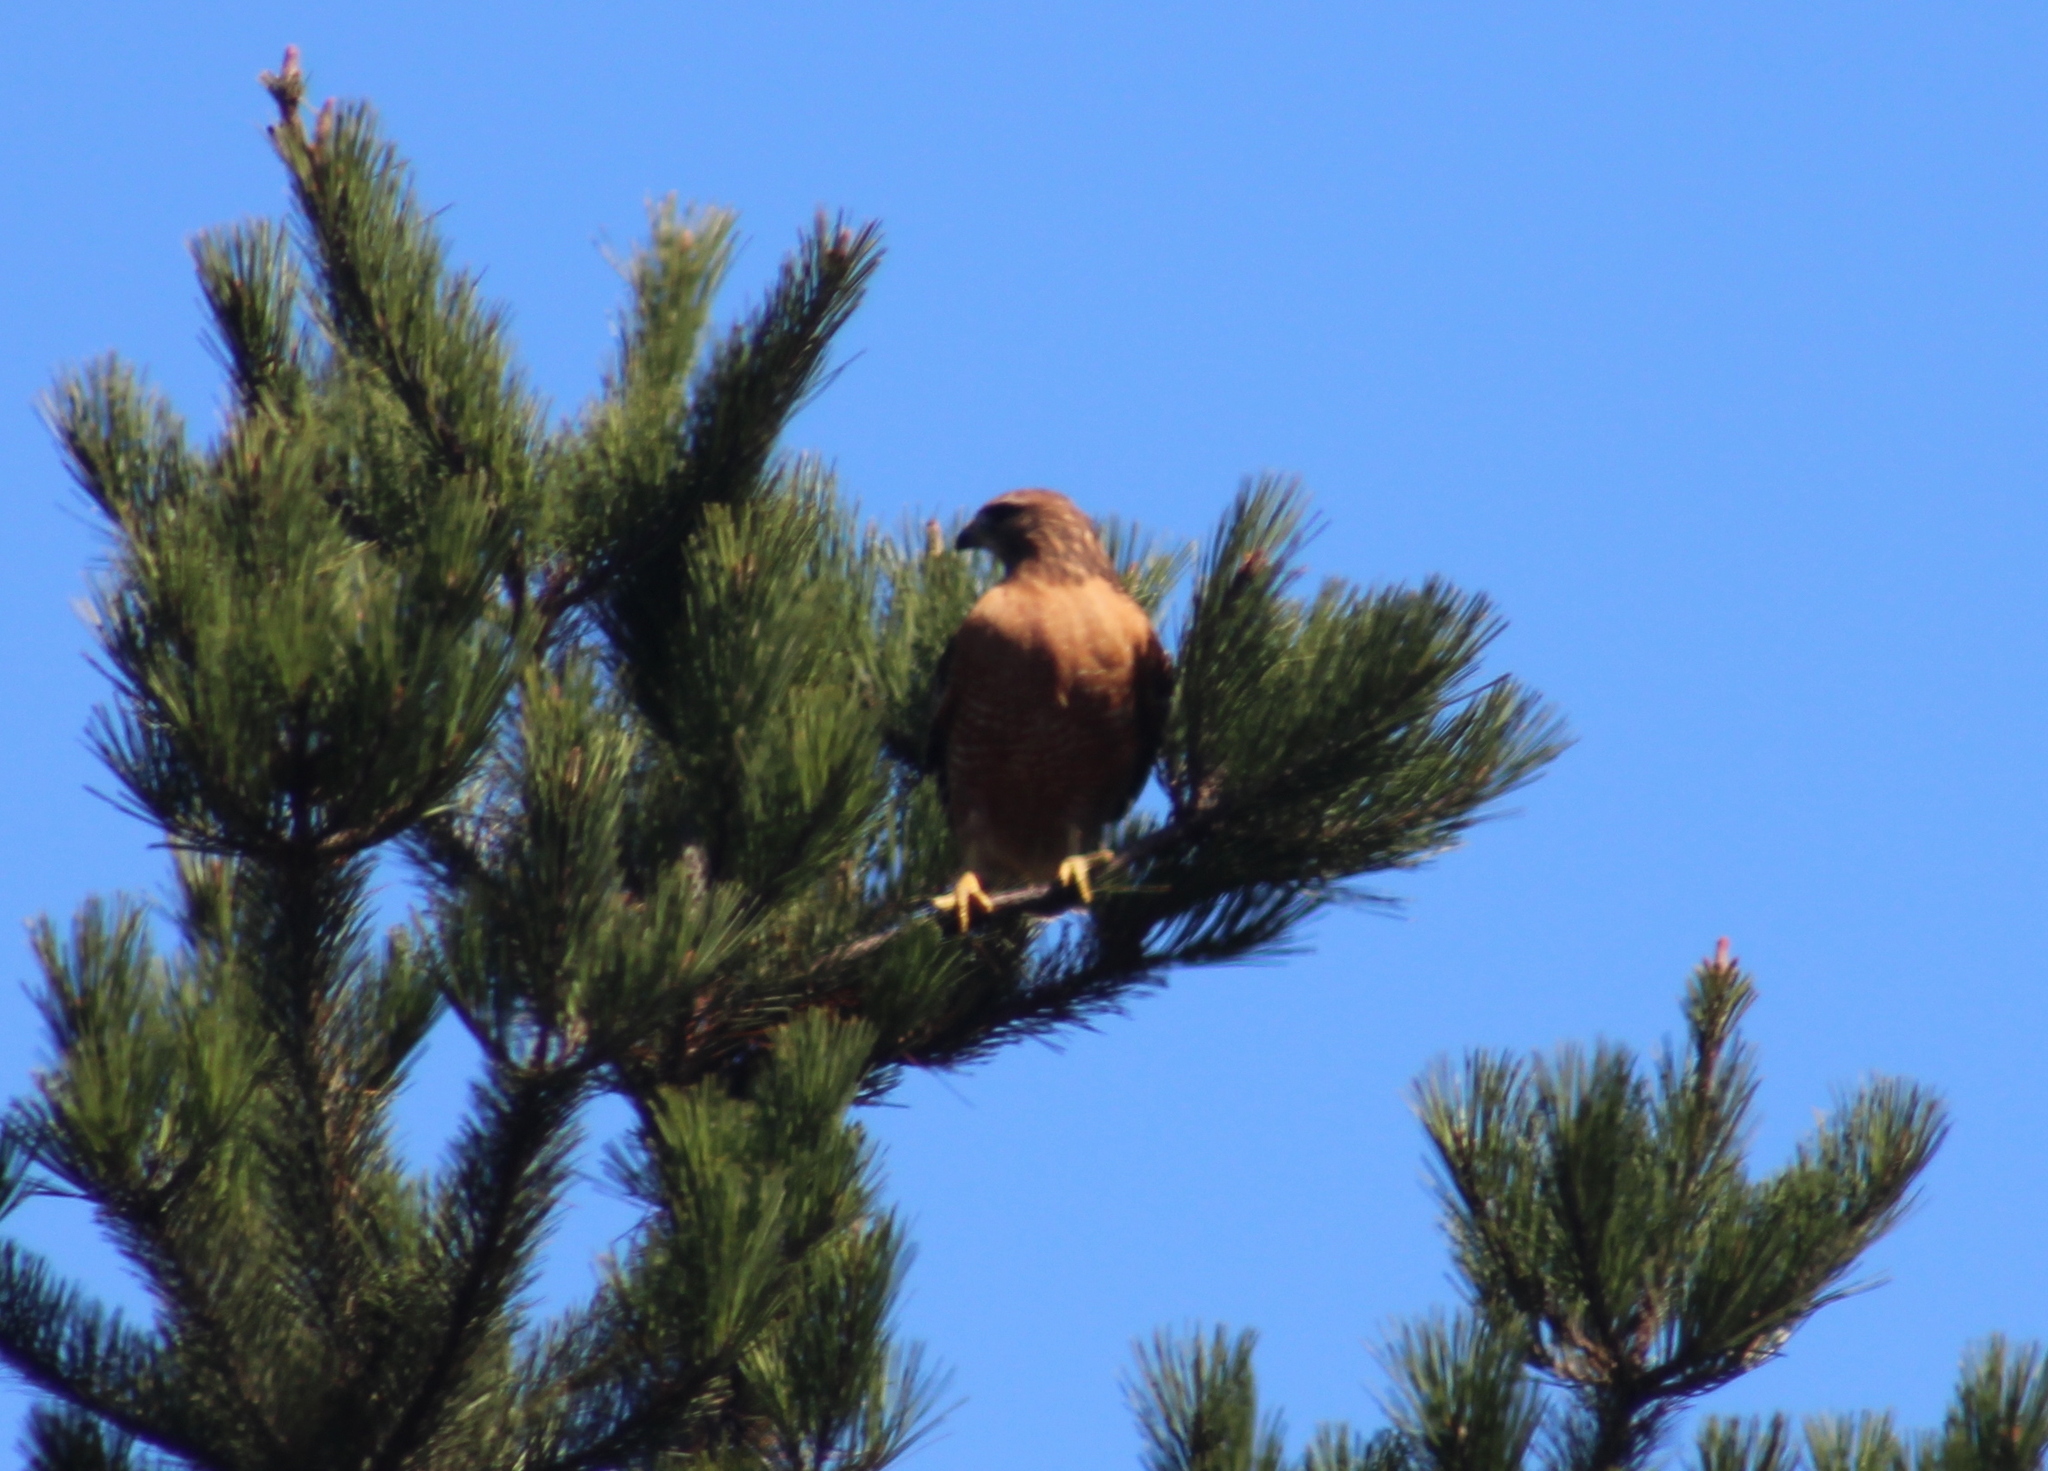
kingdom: Animalia
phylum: Chordata
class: Aves
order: Accipitriformes
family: Accipitridae
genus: Buteo
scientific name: Buteo lineatus
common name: Red-shouldered hawk
